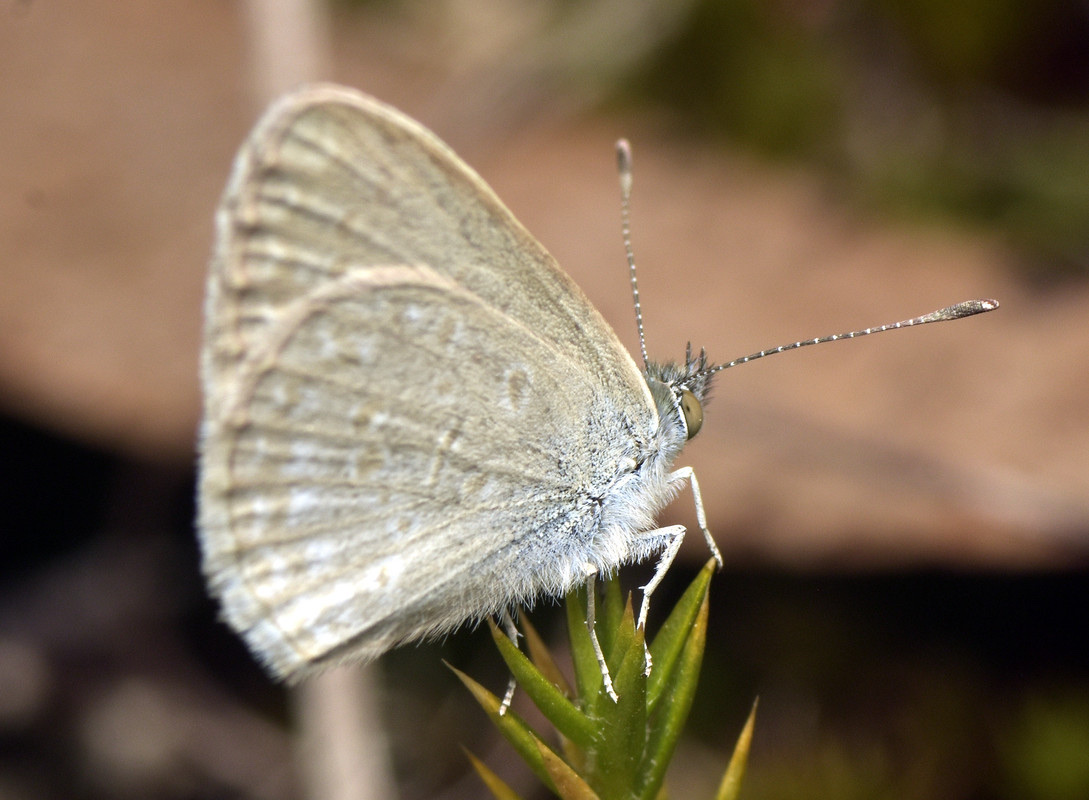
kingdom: Animalia
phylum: Arthropoda
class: Insecta
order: Lepidoptera
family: Lycaenidae
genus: Zizina
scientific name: Zizina otis
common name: Lesser grass blue
